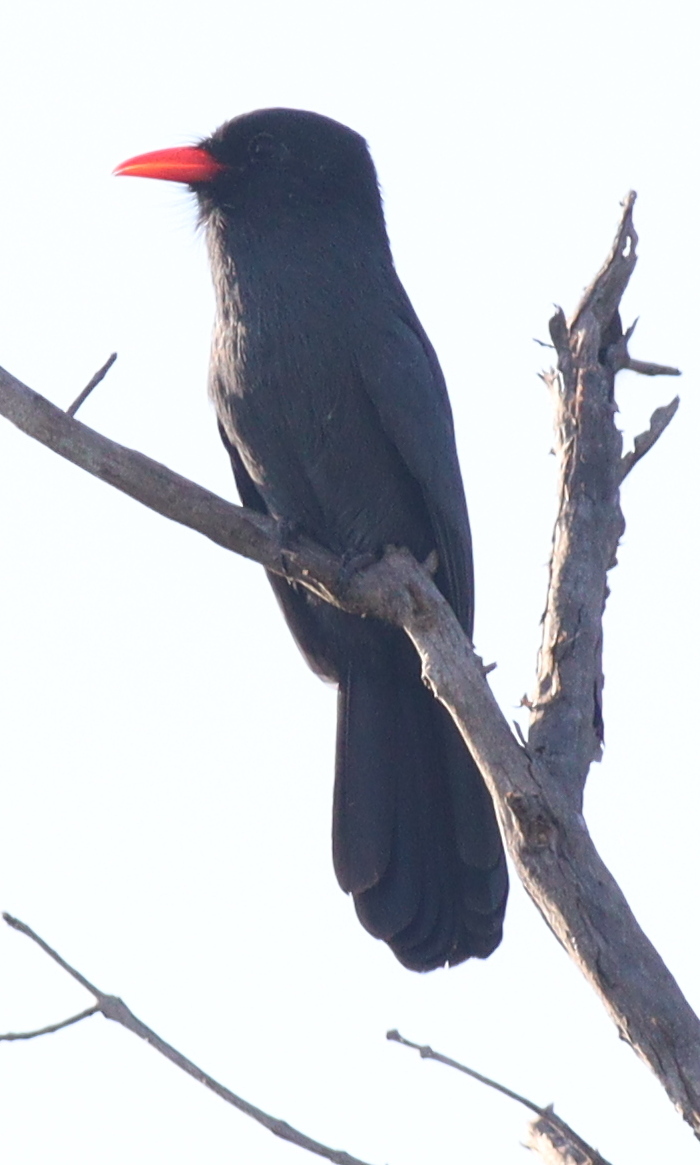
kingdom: Animalia
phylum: Chordata
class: Aves
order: Piciformes
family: Bucconidae
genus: Monasa
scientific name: Monasa nigrifrons
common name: Black-fronted nunbird
